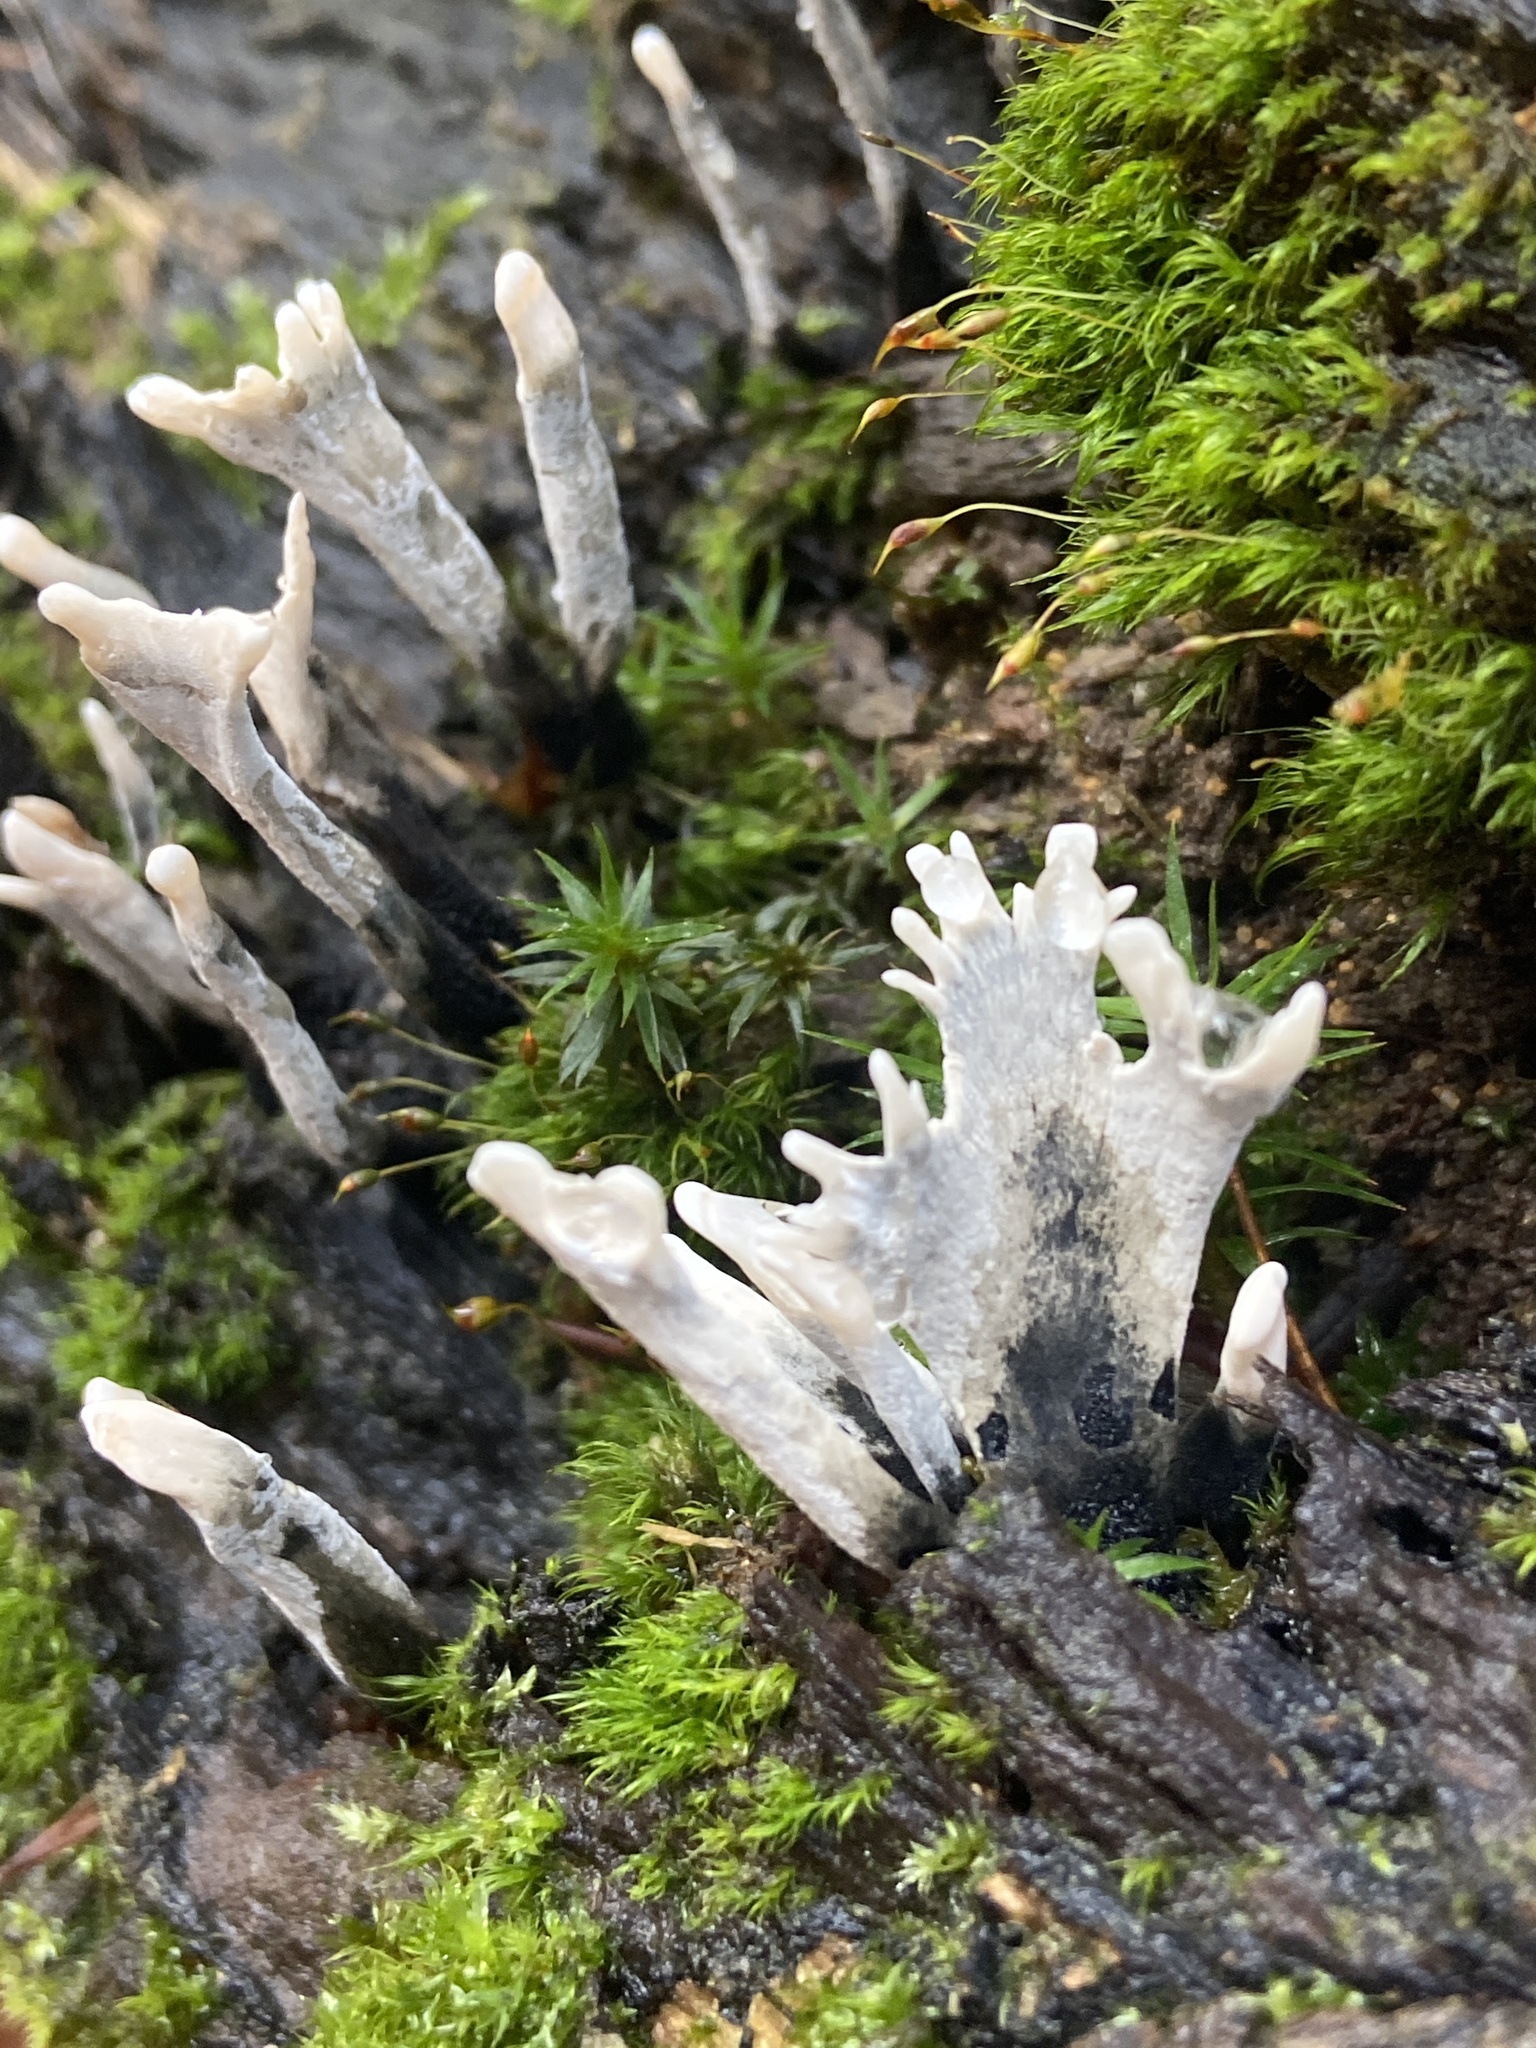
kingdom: Fungi
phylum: Ascomycota
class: Sordariomycetes
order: Xylariales
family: Xylariaceae
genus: Xylaria
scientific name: Xylaria hypoxylon
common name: Candle-snuff fungus
